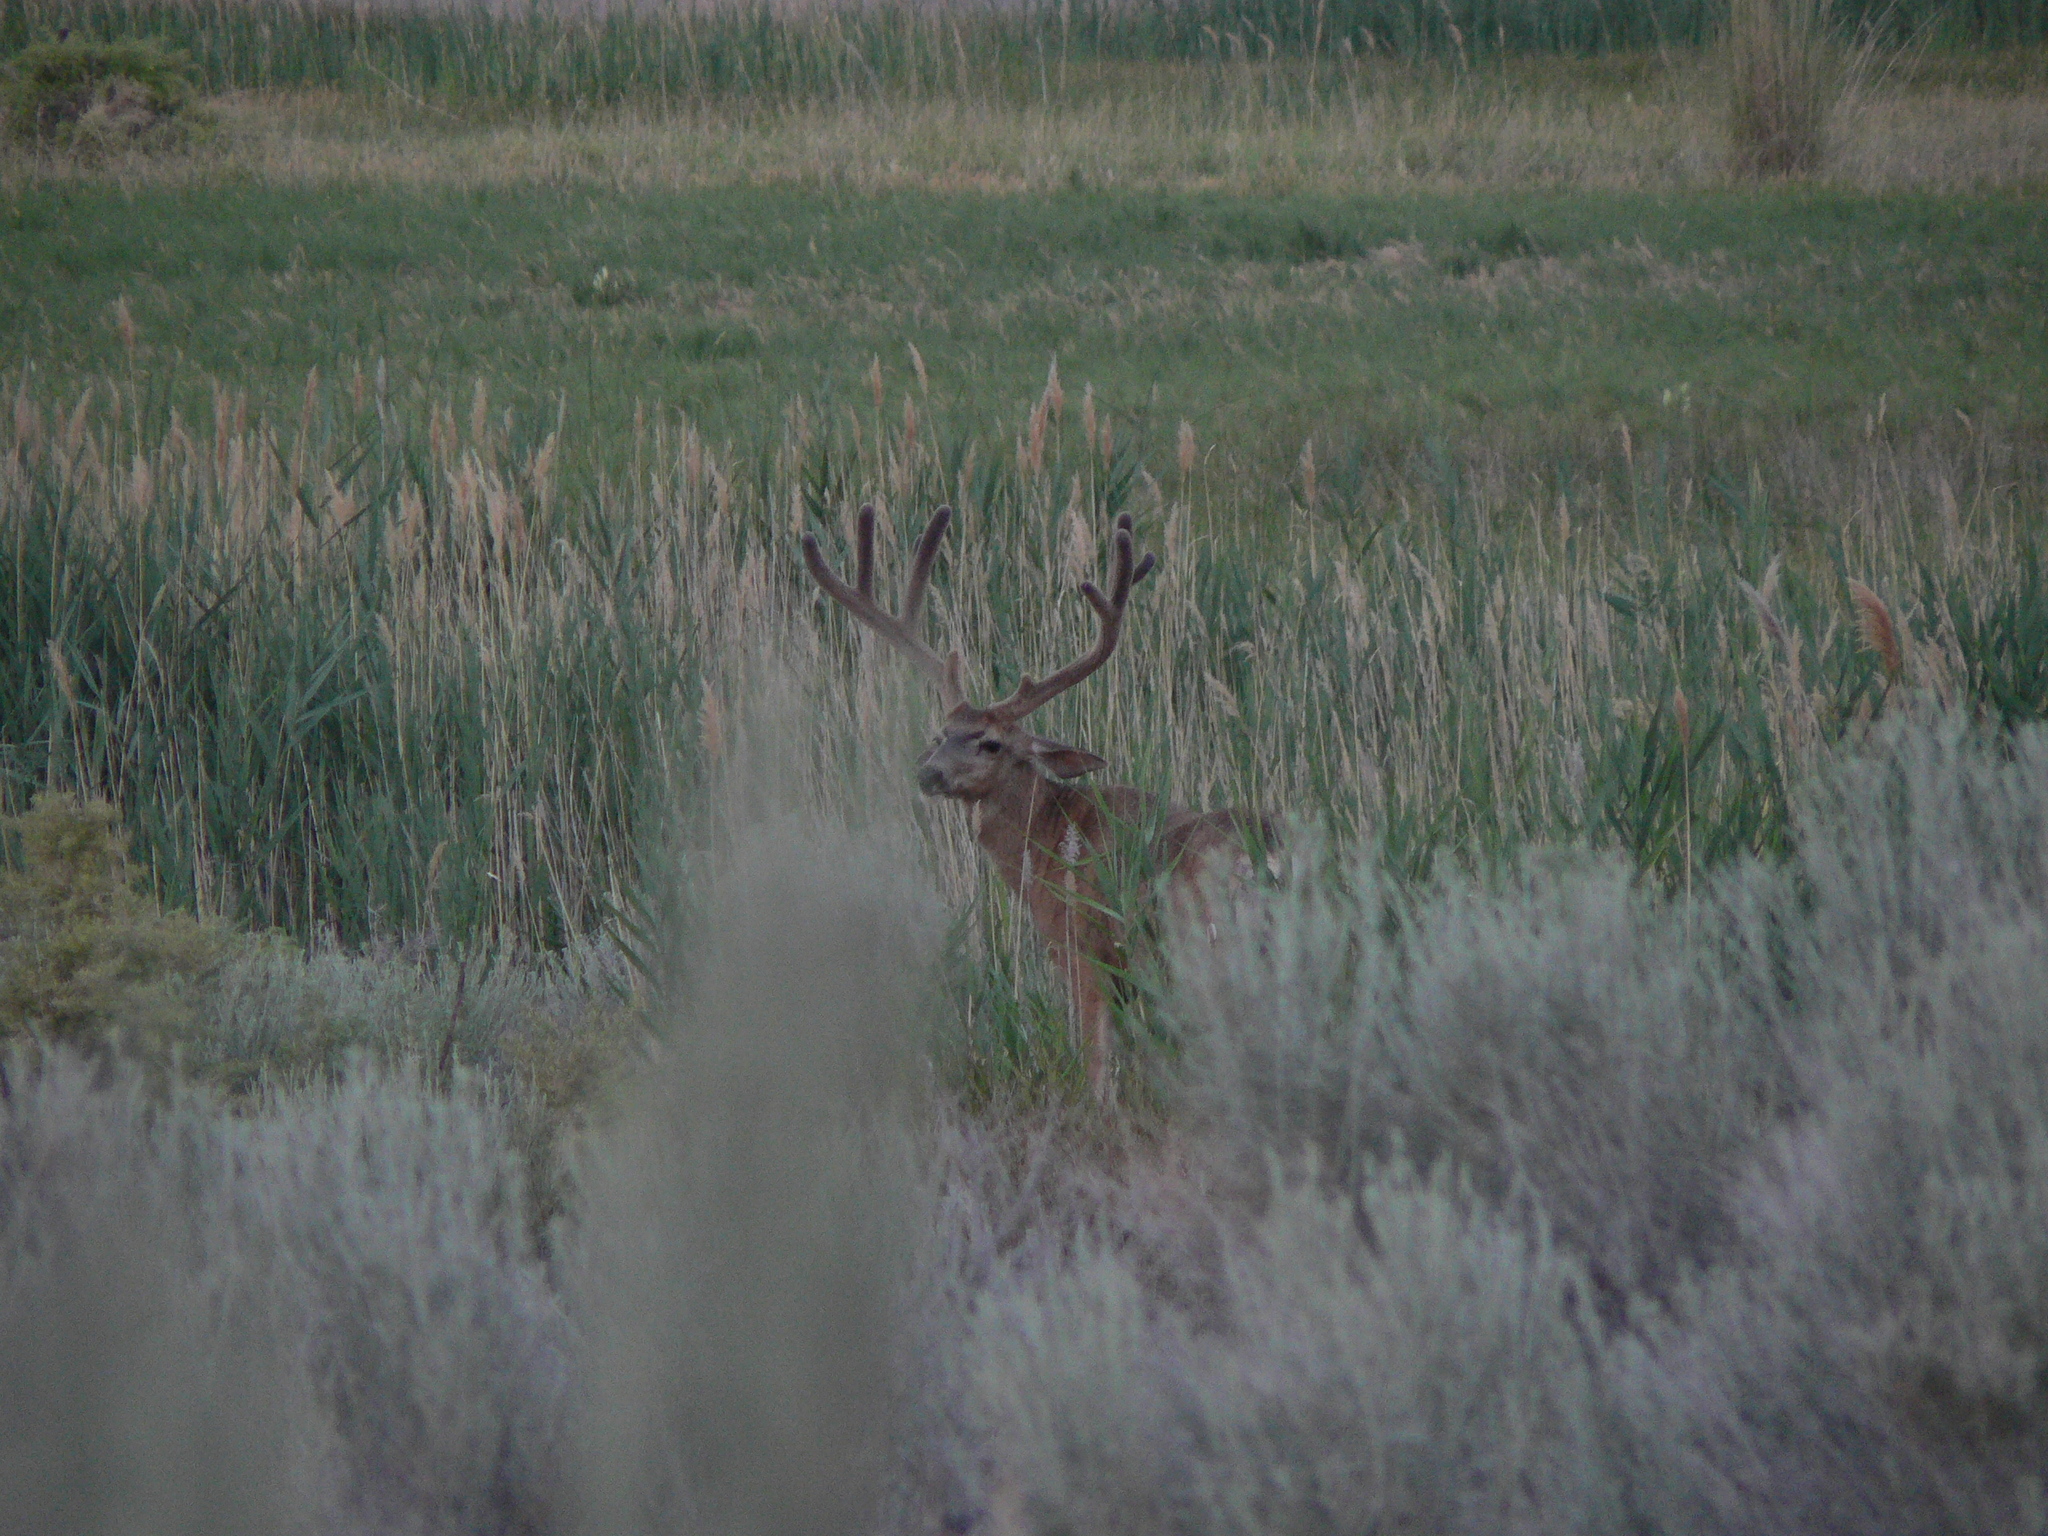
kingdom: Animalia
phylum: Chordata
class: Mammalia
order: Artiodactyla
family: Cervidae
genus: Odocoileus
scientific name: Odocoileus hemionus
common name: Mule deer
